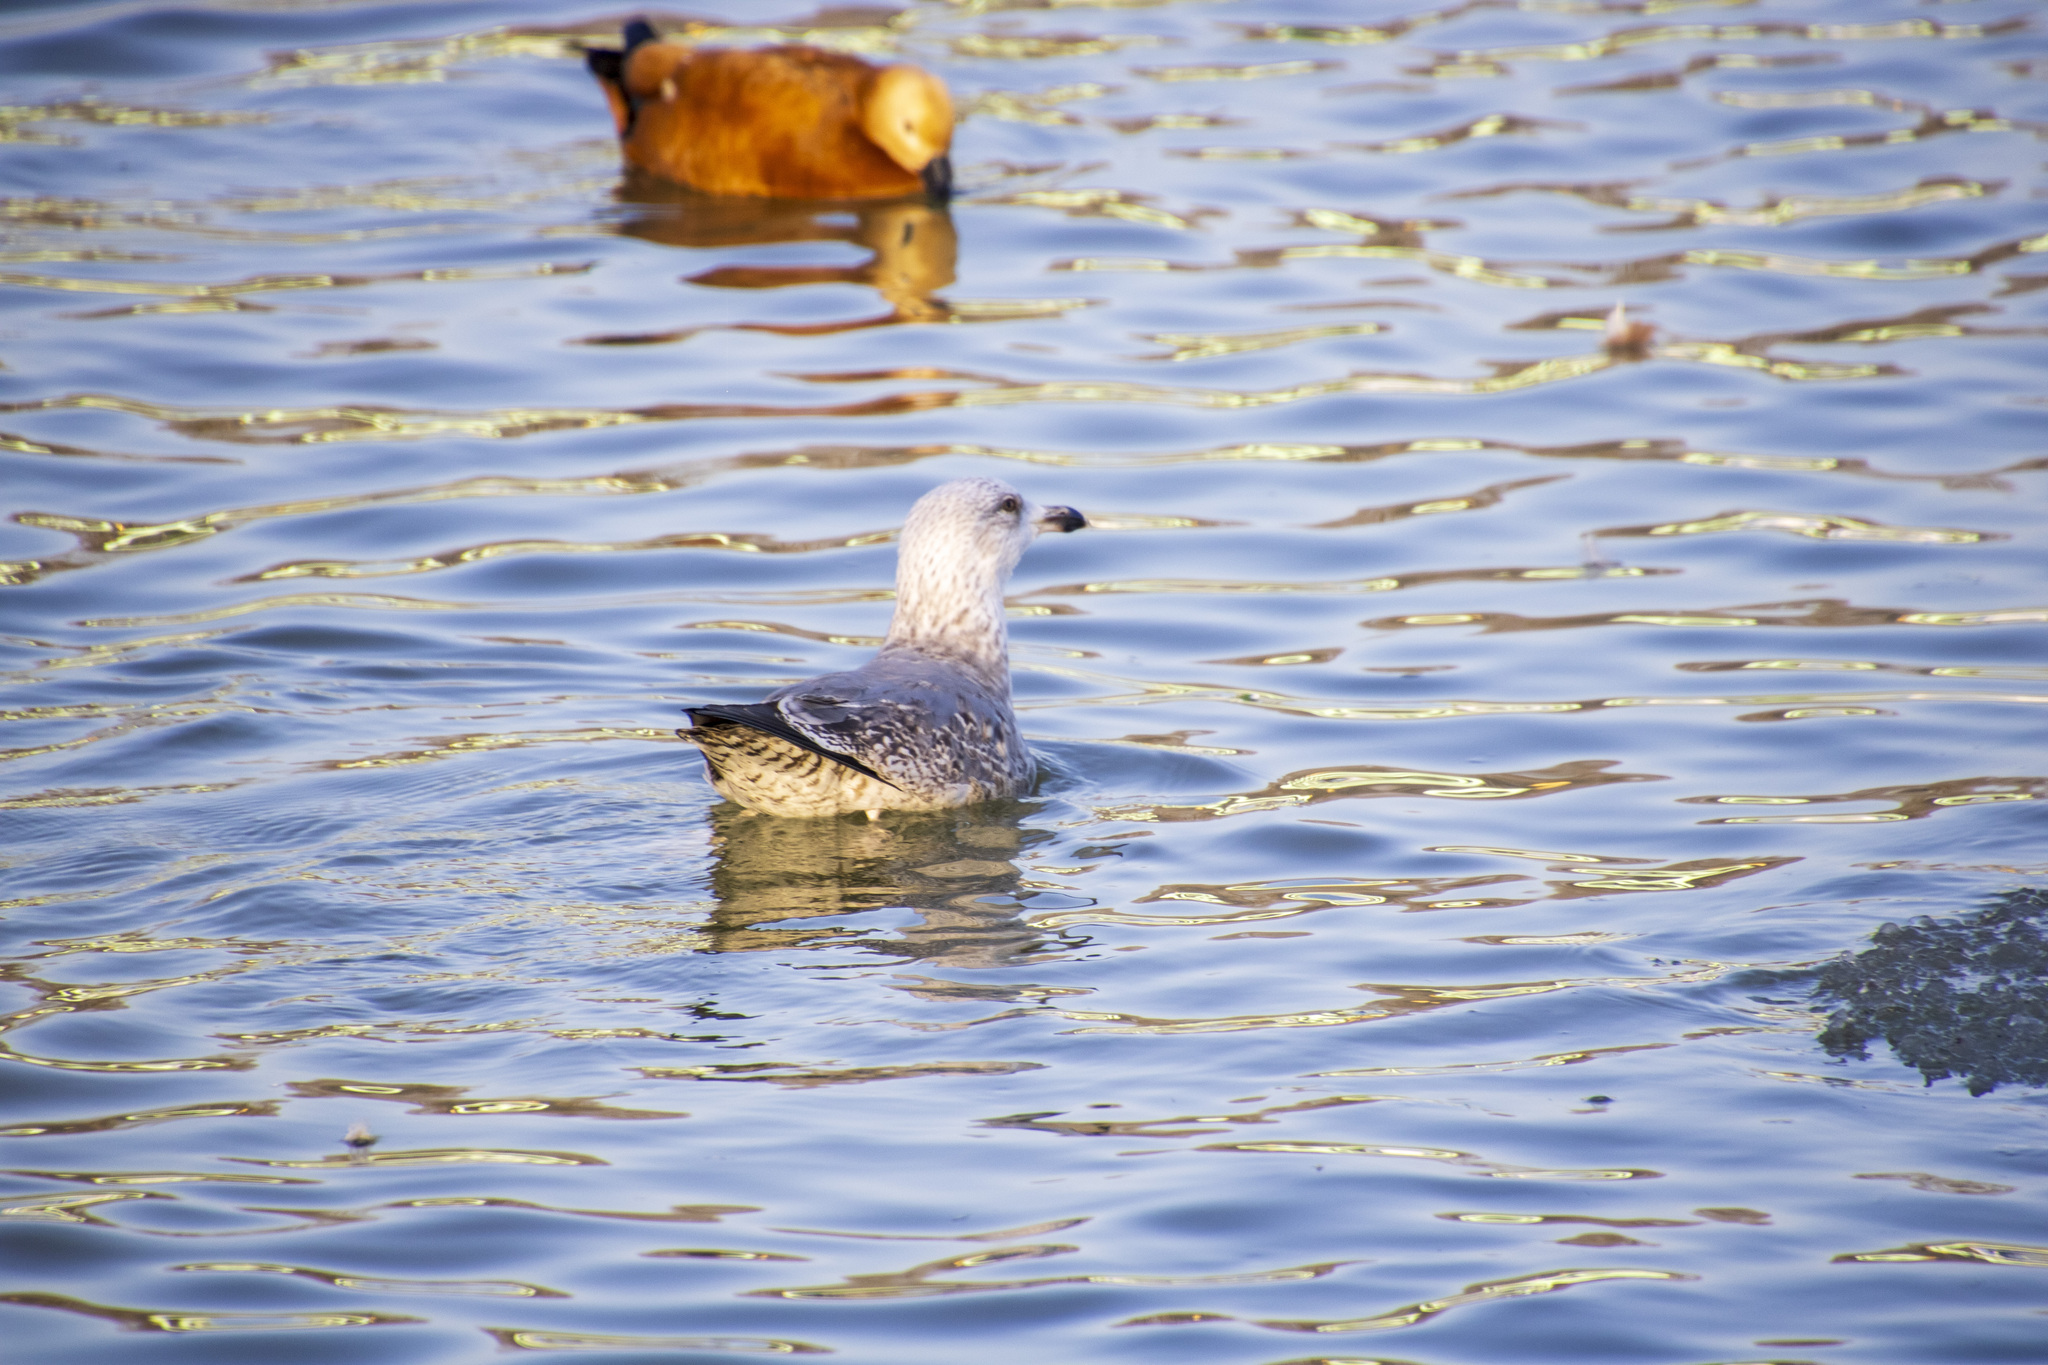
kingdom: Animalia
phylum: Chordata
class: Aves
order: Charadriiformes
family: Laridae
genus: Larus
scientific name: Larus argentatus
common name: Herring gull
